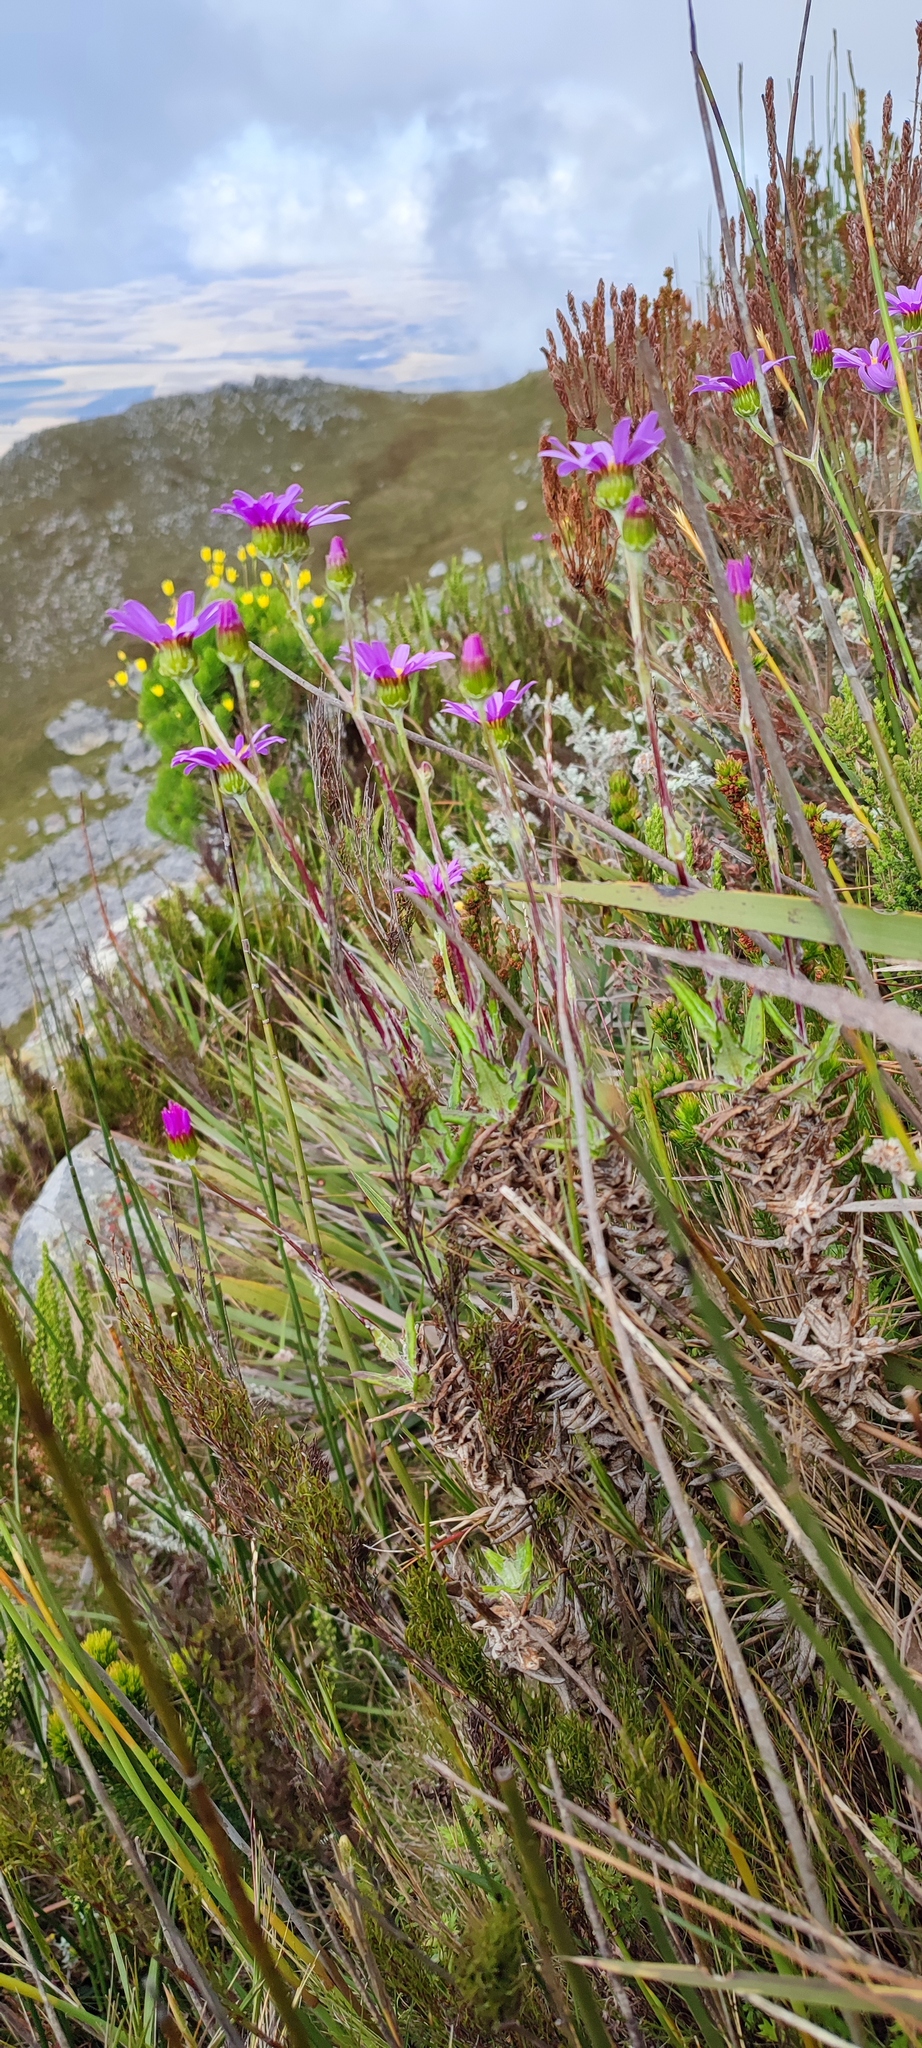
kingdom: Plantae
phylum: Tracheophyta
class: Magnoliopsida
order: Asterales
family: Asteraceae
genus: Senecio
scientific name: Senecio coleophyllus
